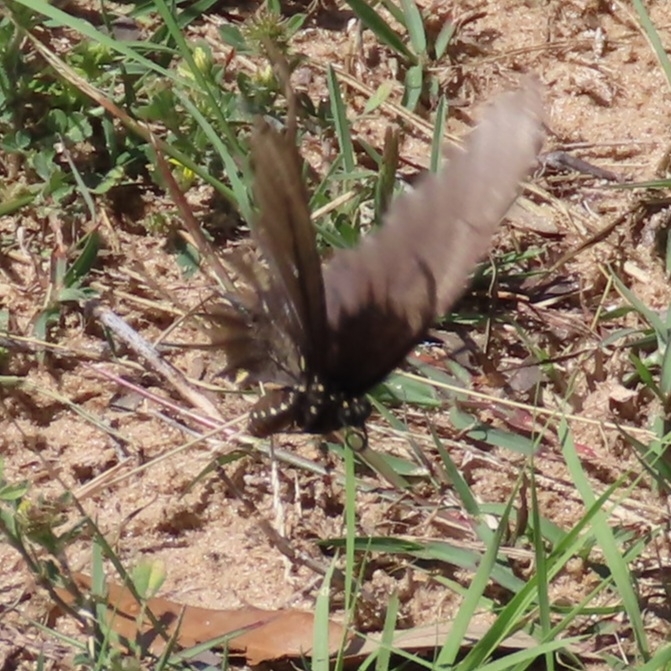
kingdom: Animalia
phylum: Arthropoda
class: Insecta
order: Lepidoptera
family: Papilionidae
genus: Battus
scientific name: Battus philenor
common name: Pipevine swallowtail
